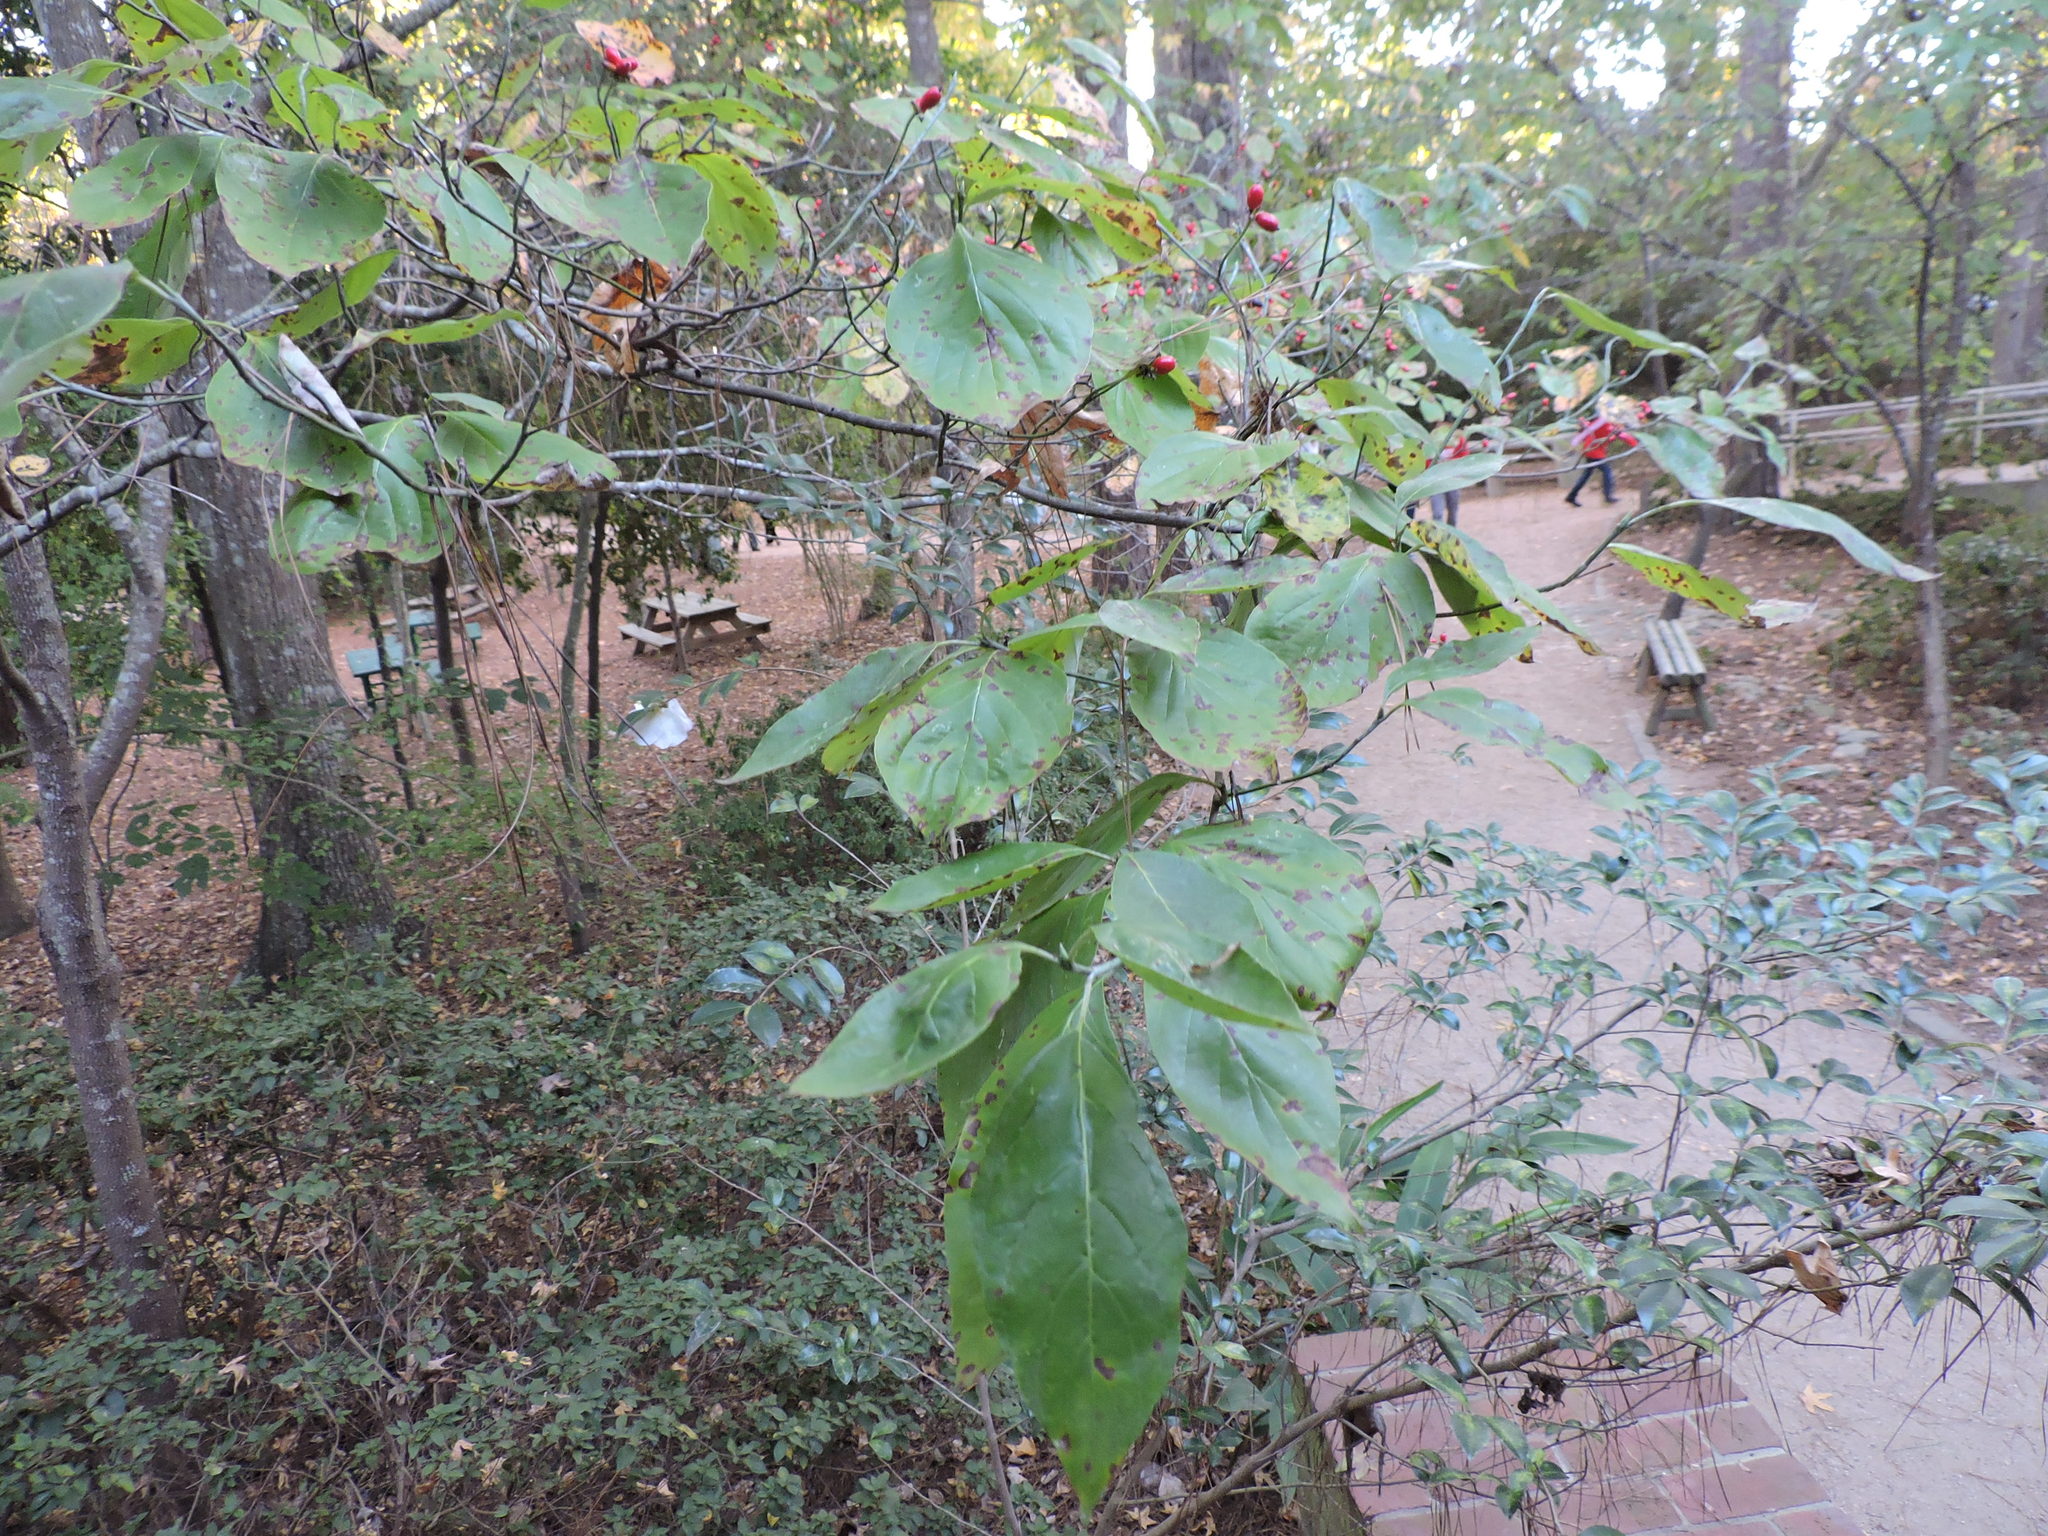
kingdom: Plantae
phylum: Tracheophyta
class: Magnoliopsida
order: Cornales
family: Cornaceae
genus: Cornus
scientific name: Cornus florida
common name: Flowering dogwood
